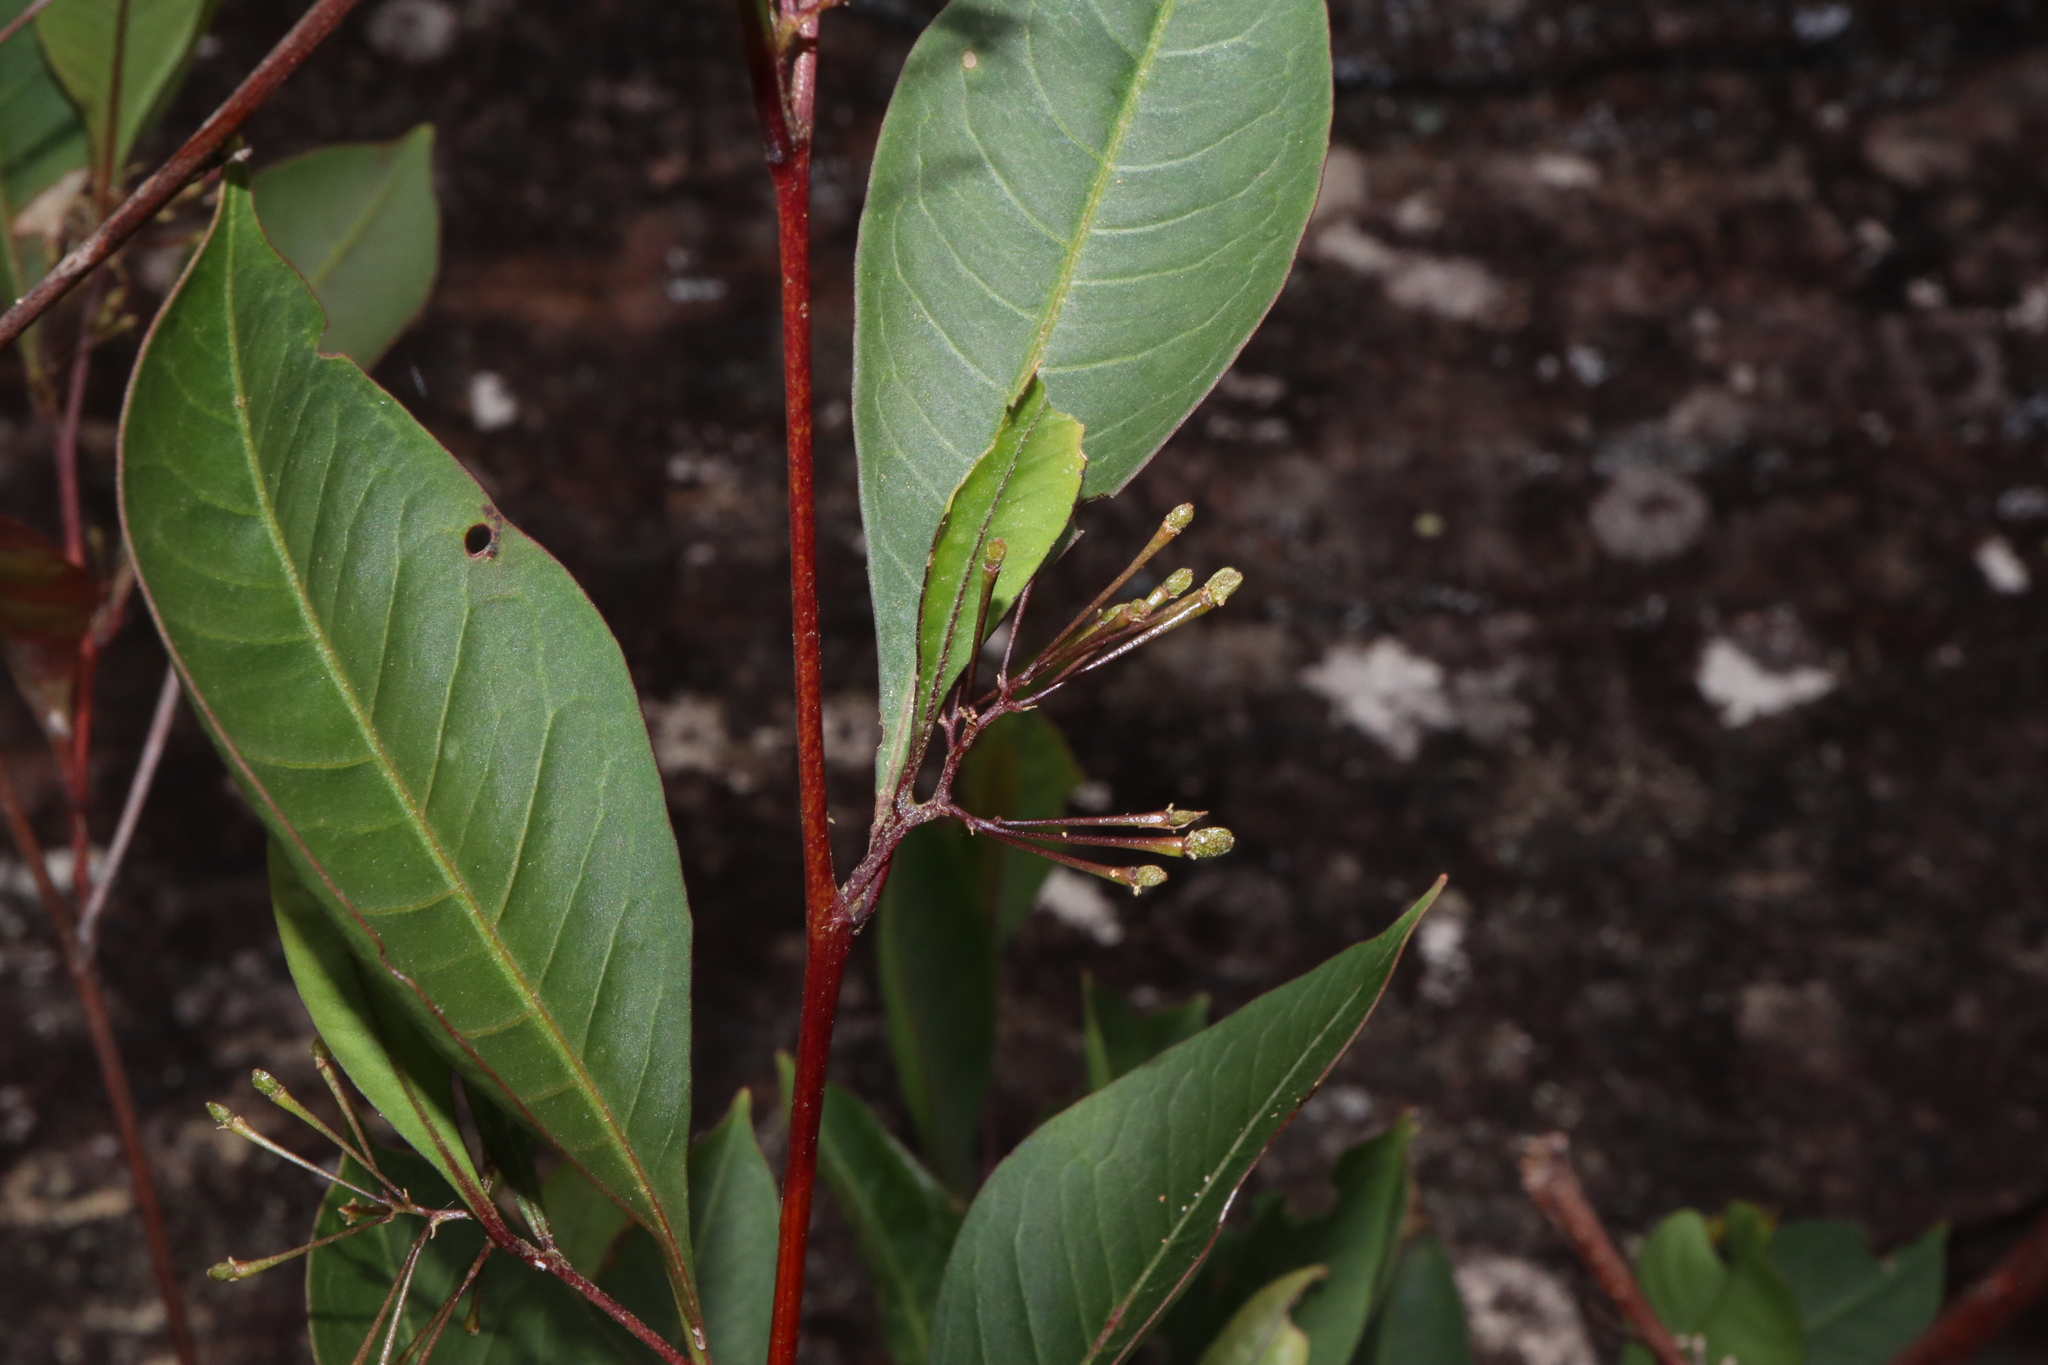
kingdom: Plantae
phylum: Tracheophyta
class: Magnoliopsida
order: Sapindales
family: Sapindaceae
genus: Dodonaea
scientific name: Dodonaea triquetra
